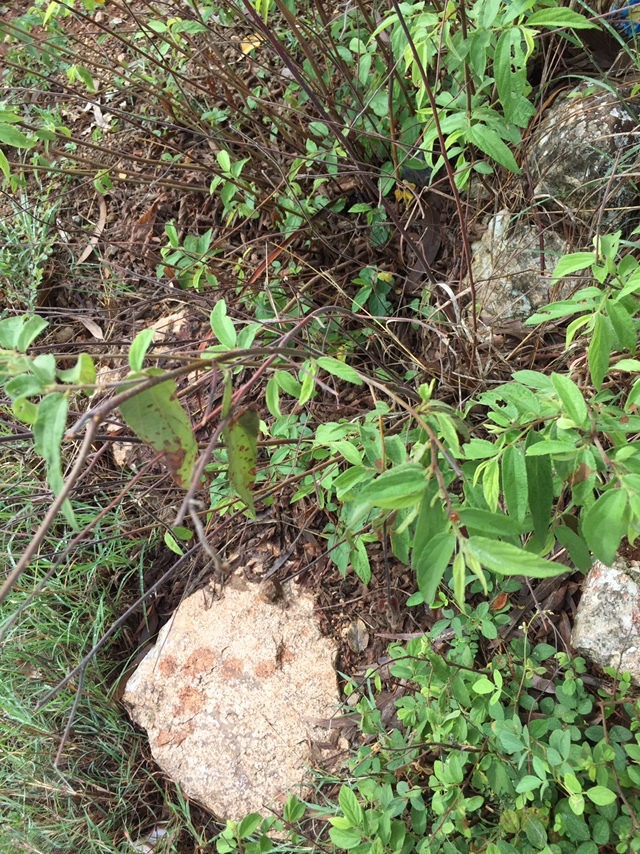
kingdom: Plantae
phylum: Tracheophyta
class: Magnoliopsida
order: Malvales
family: Malvaceae
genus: Grewia
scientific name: Grewia hirsuta
